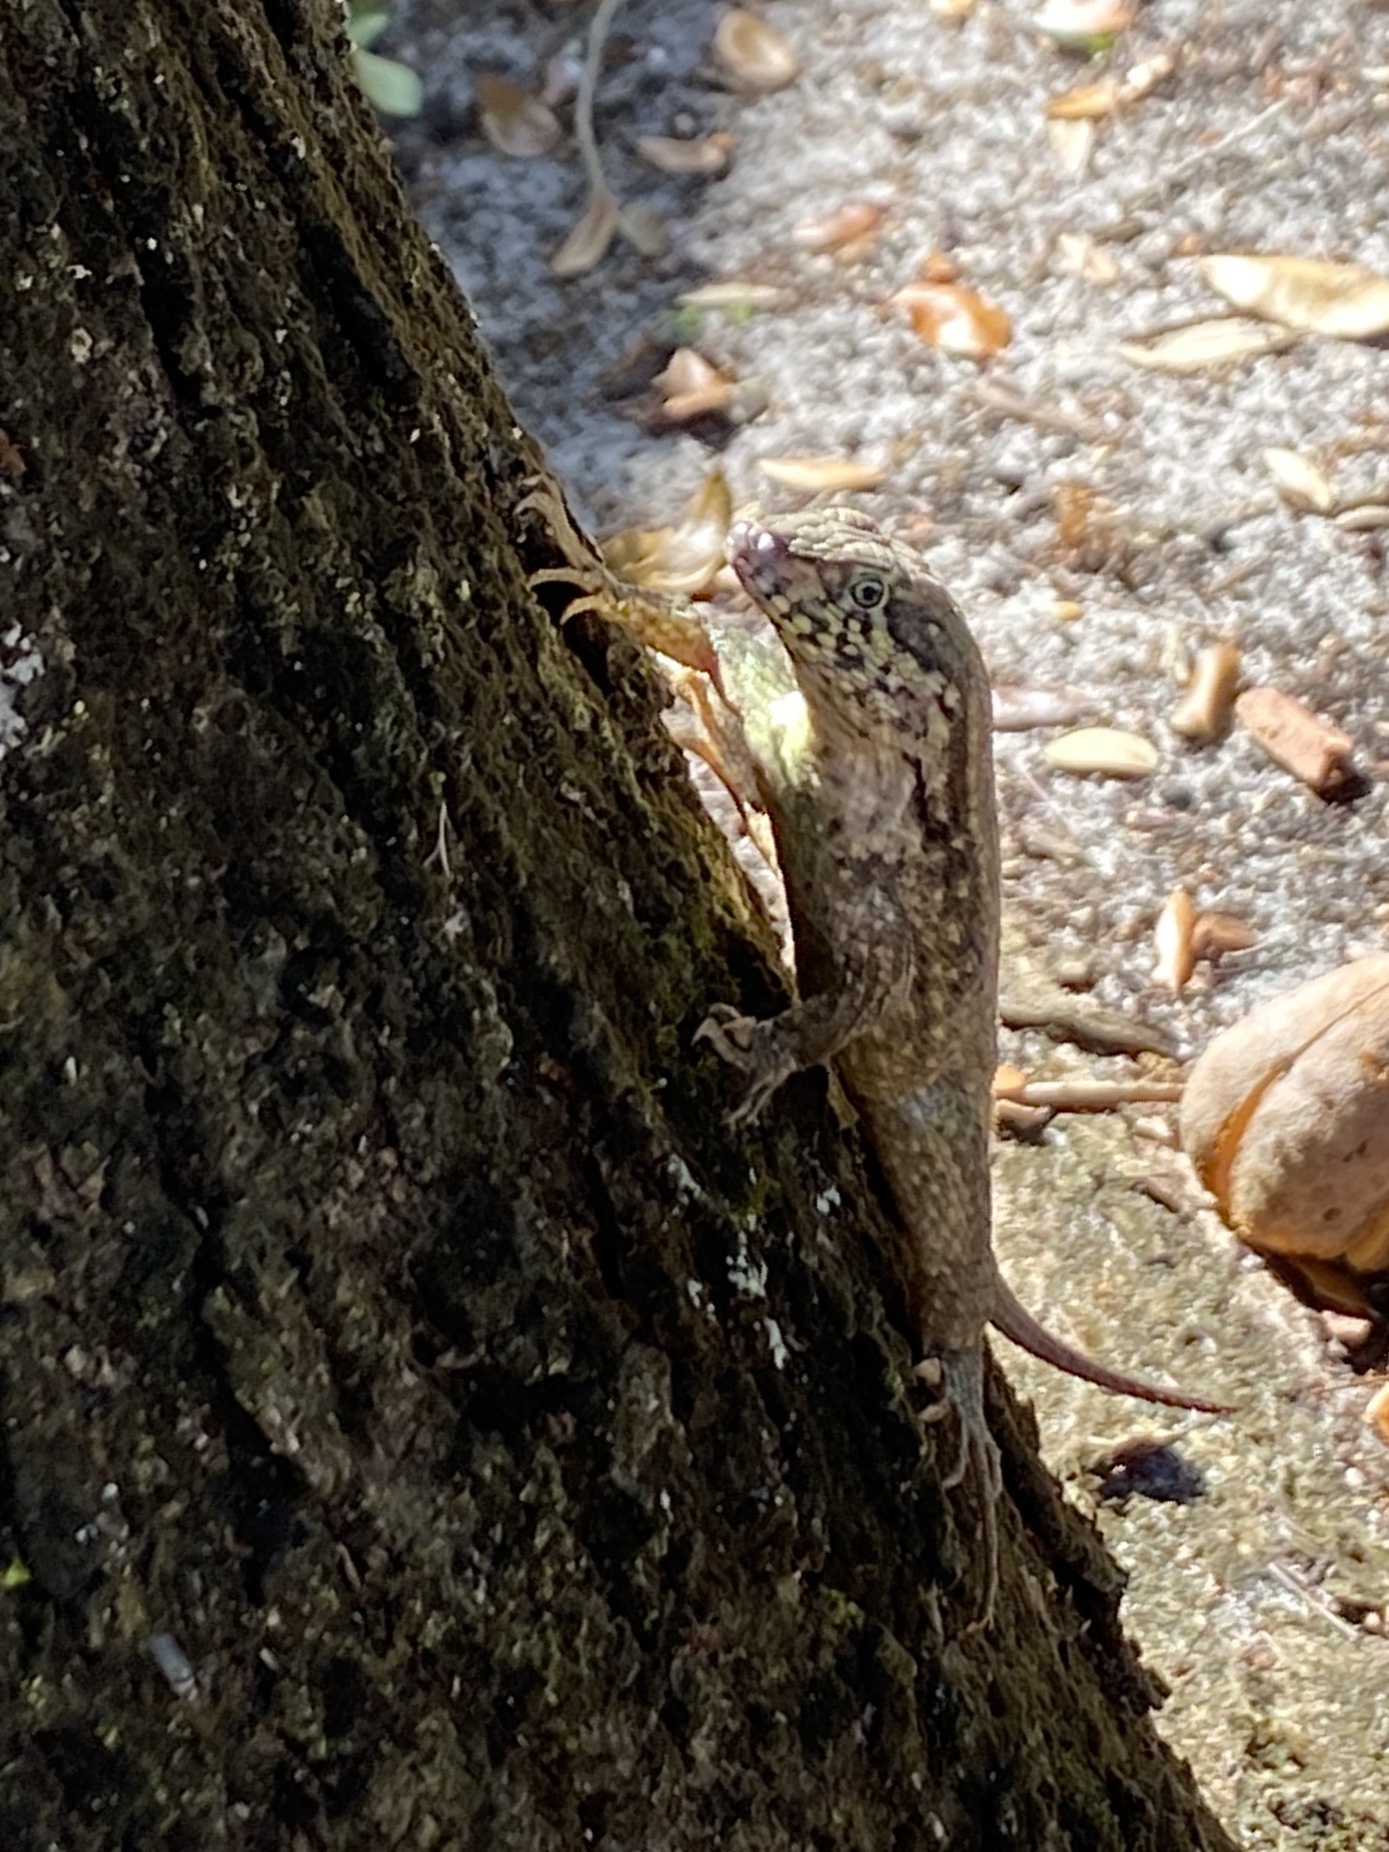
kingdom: Animalia
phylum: Chordata
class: Squamata
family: Leiocephalidae
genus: Leiocephalus
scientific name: Leiocephalus carinatus
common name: Northern curly-tailed lizard
